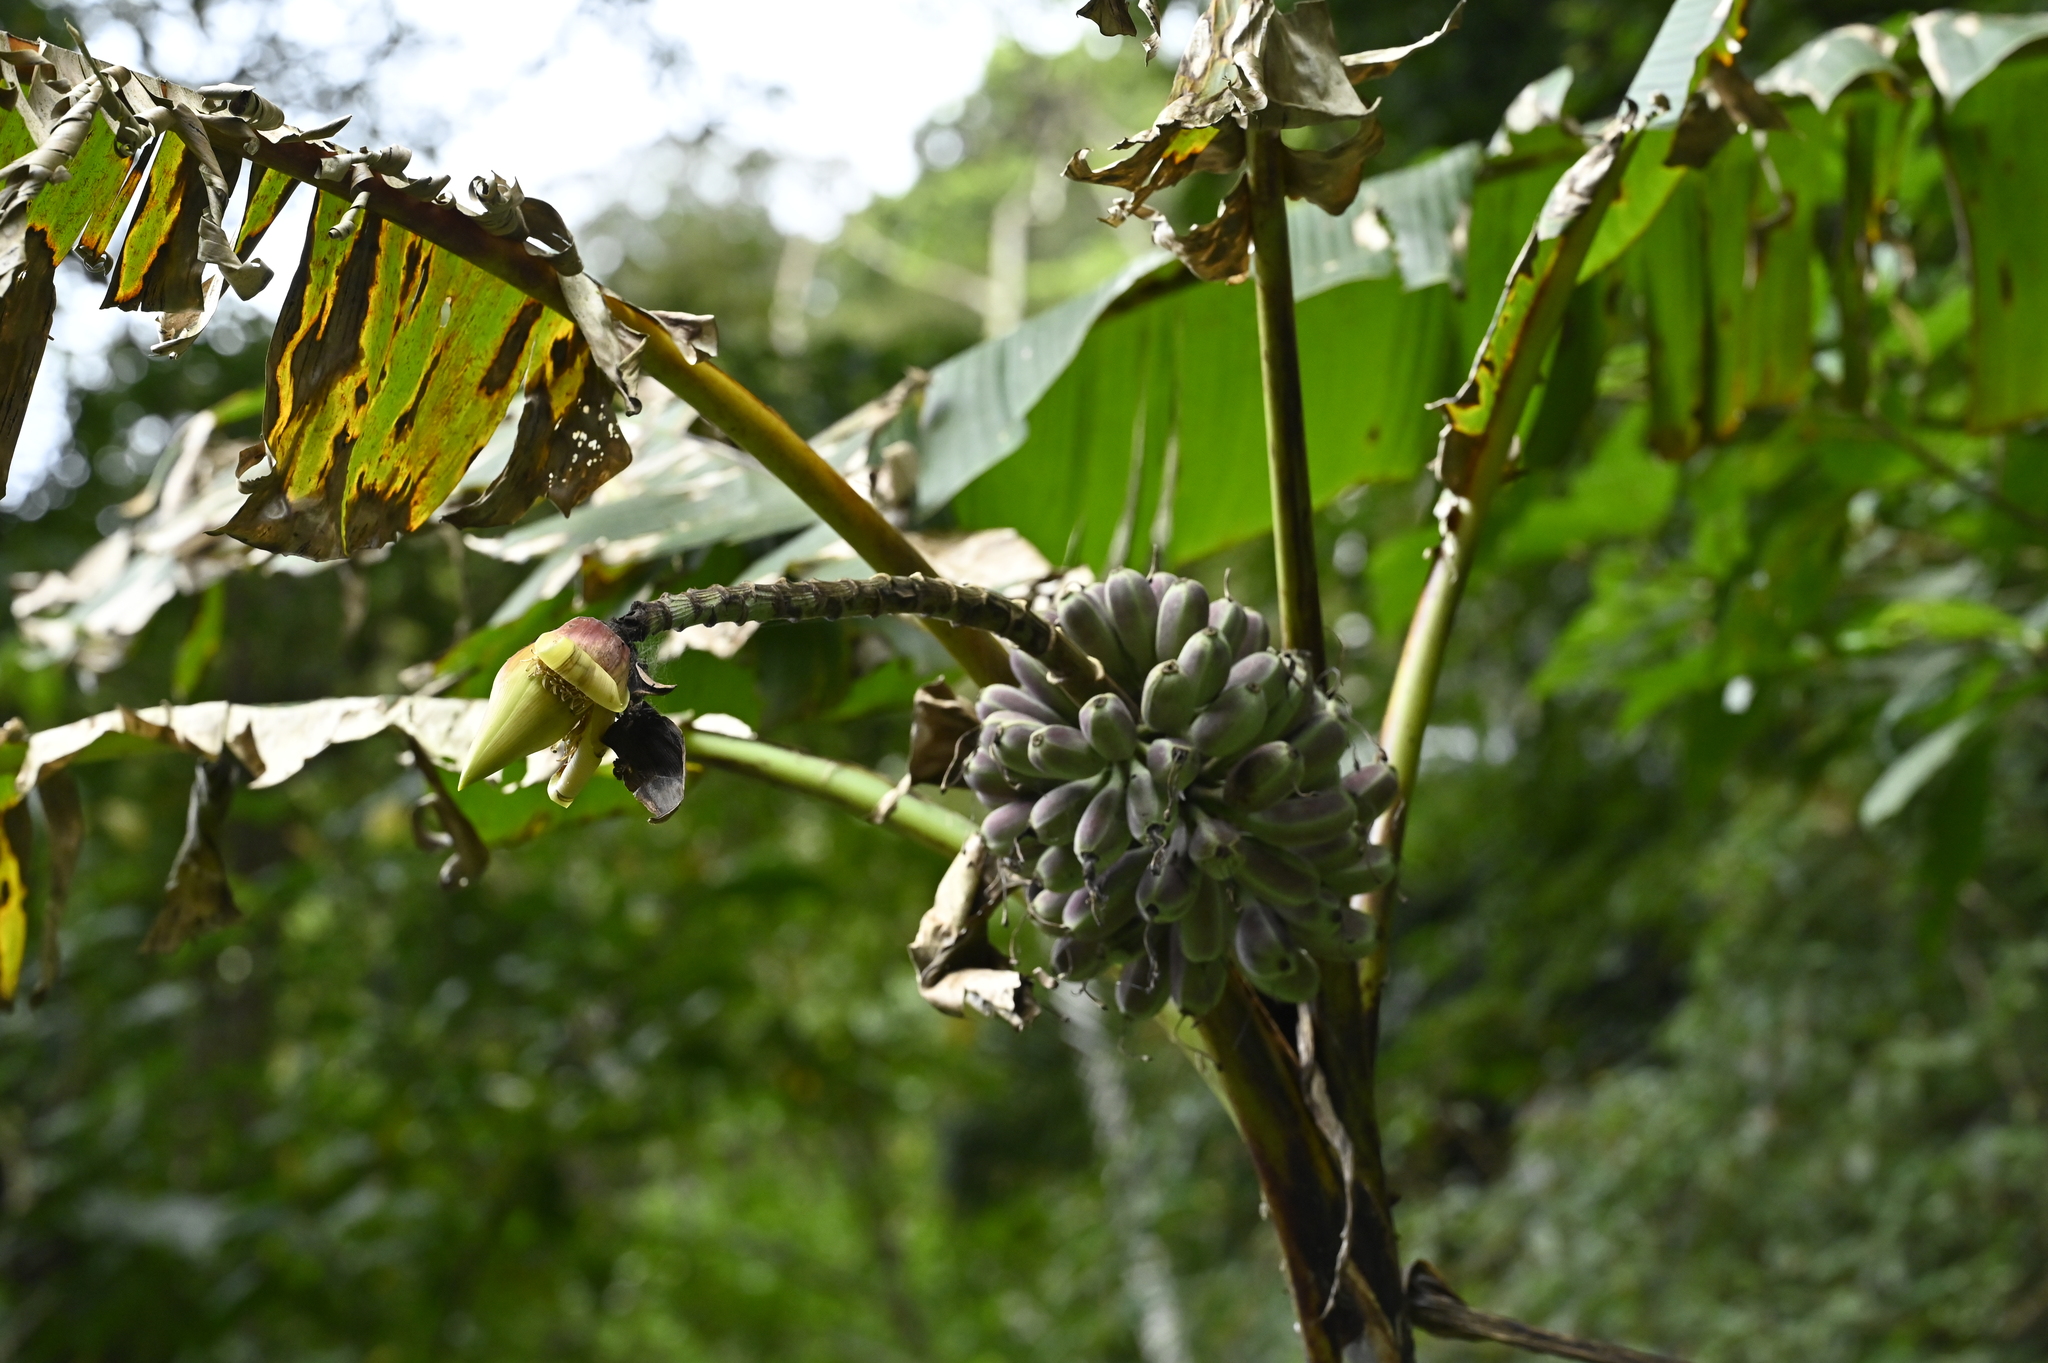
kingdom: Plantae
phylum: Tracheophyta
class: Liliopsida
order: Zingiberales
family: Musaceae
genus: Musa
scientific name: Musa itinerans
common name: Yunnan banana
